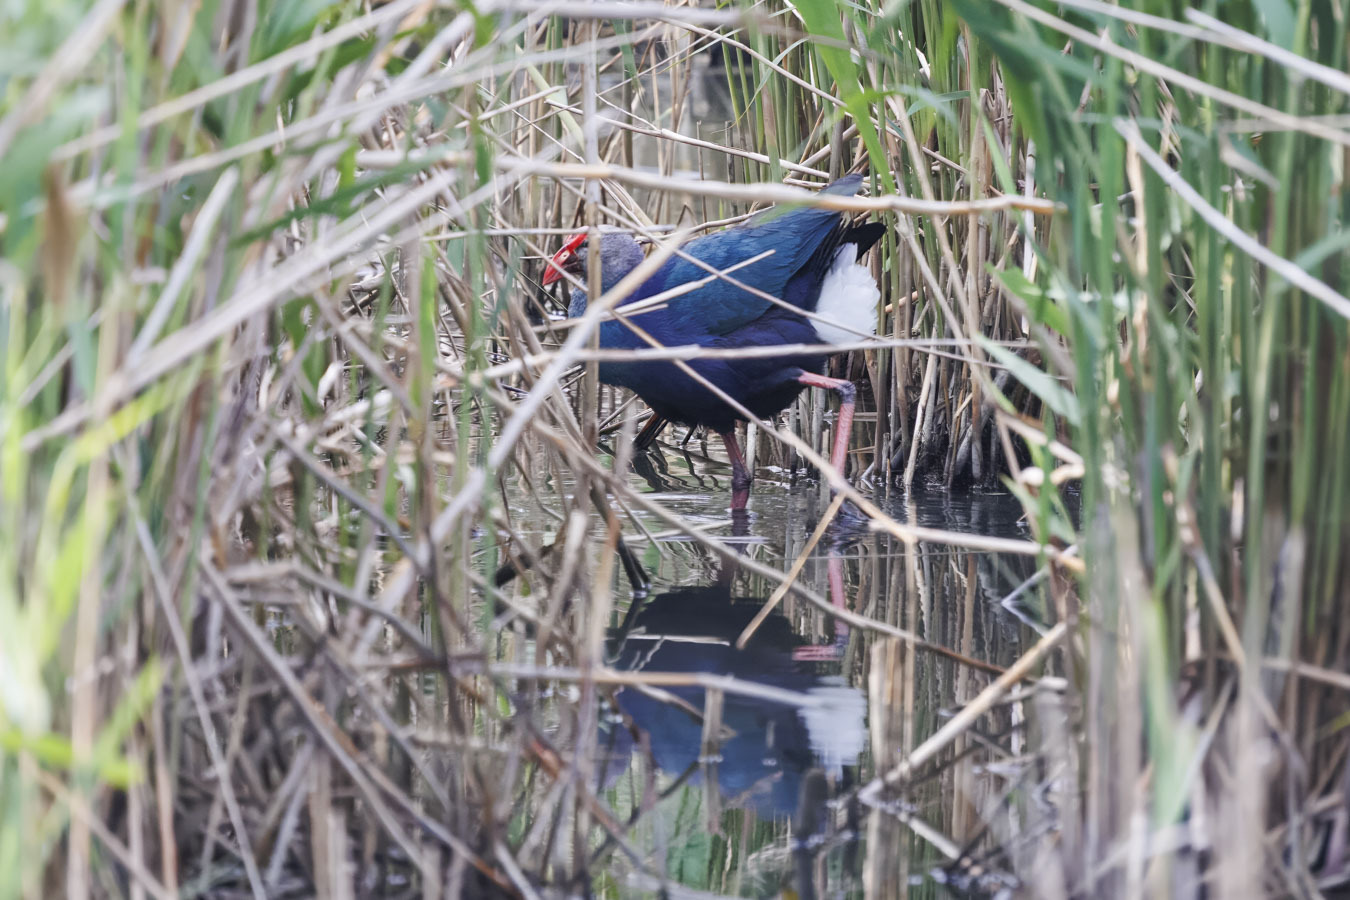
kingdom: Animalia
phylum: Chordata
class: Aves
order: Gruiformes
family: Rallidae
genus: Porphyrio
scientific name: Porphyrio porphyrio
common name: Purple swamphen
